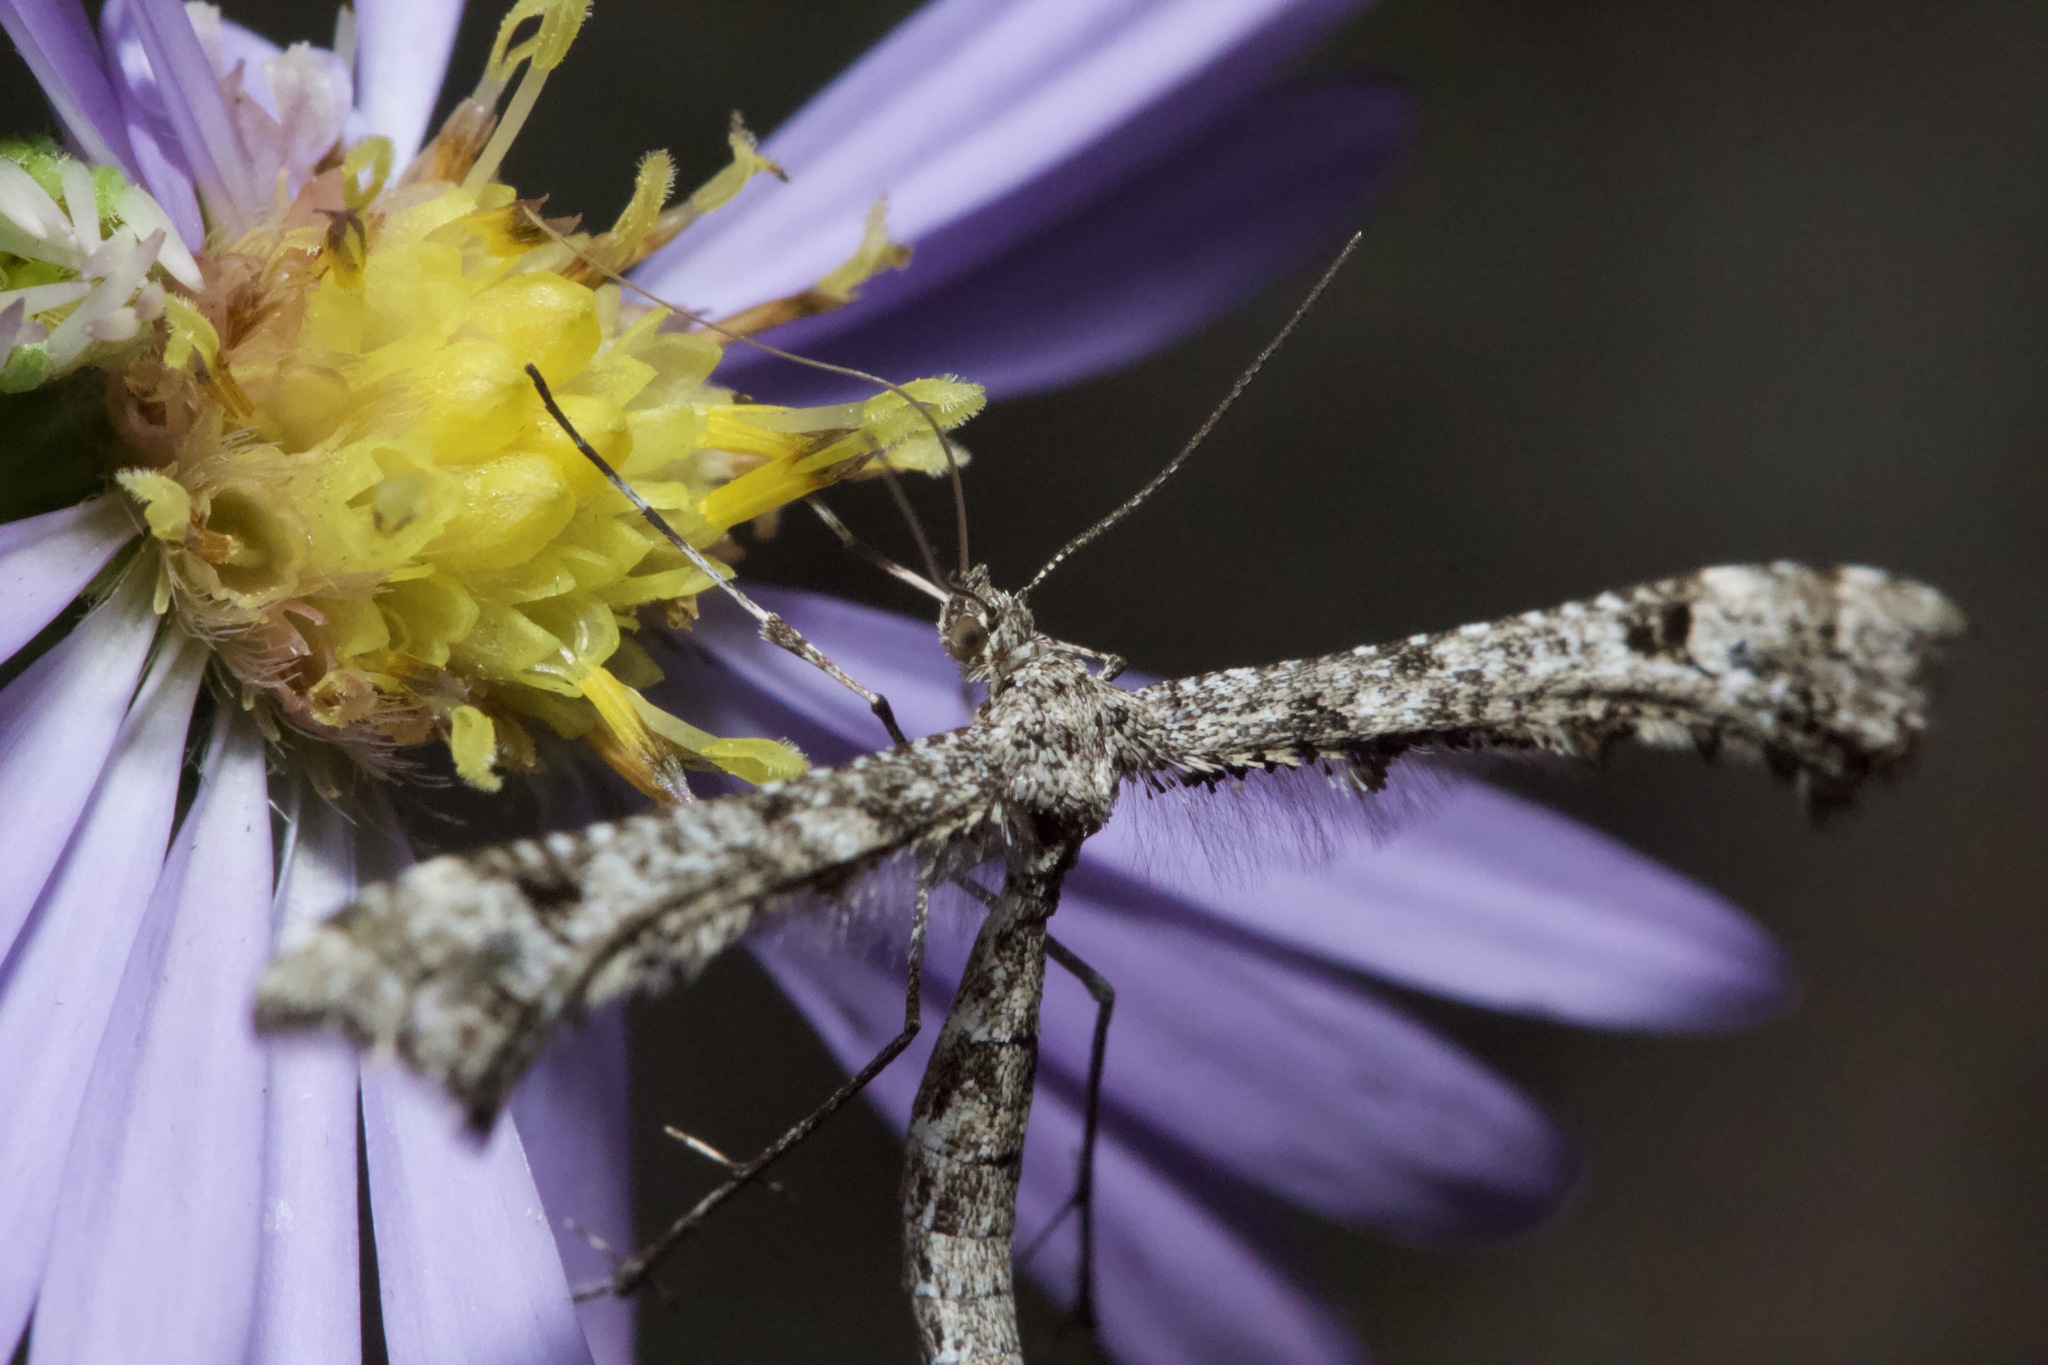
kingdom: Animalia
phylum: Arthropoda
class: Insecta
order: Lepidoptera
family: Pterophoridae
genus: Amblyptilia
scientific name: Amblyptilia pica
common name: Geranium plume moth
